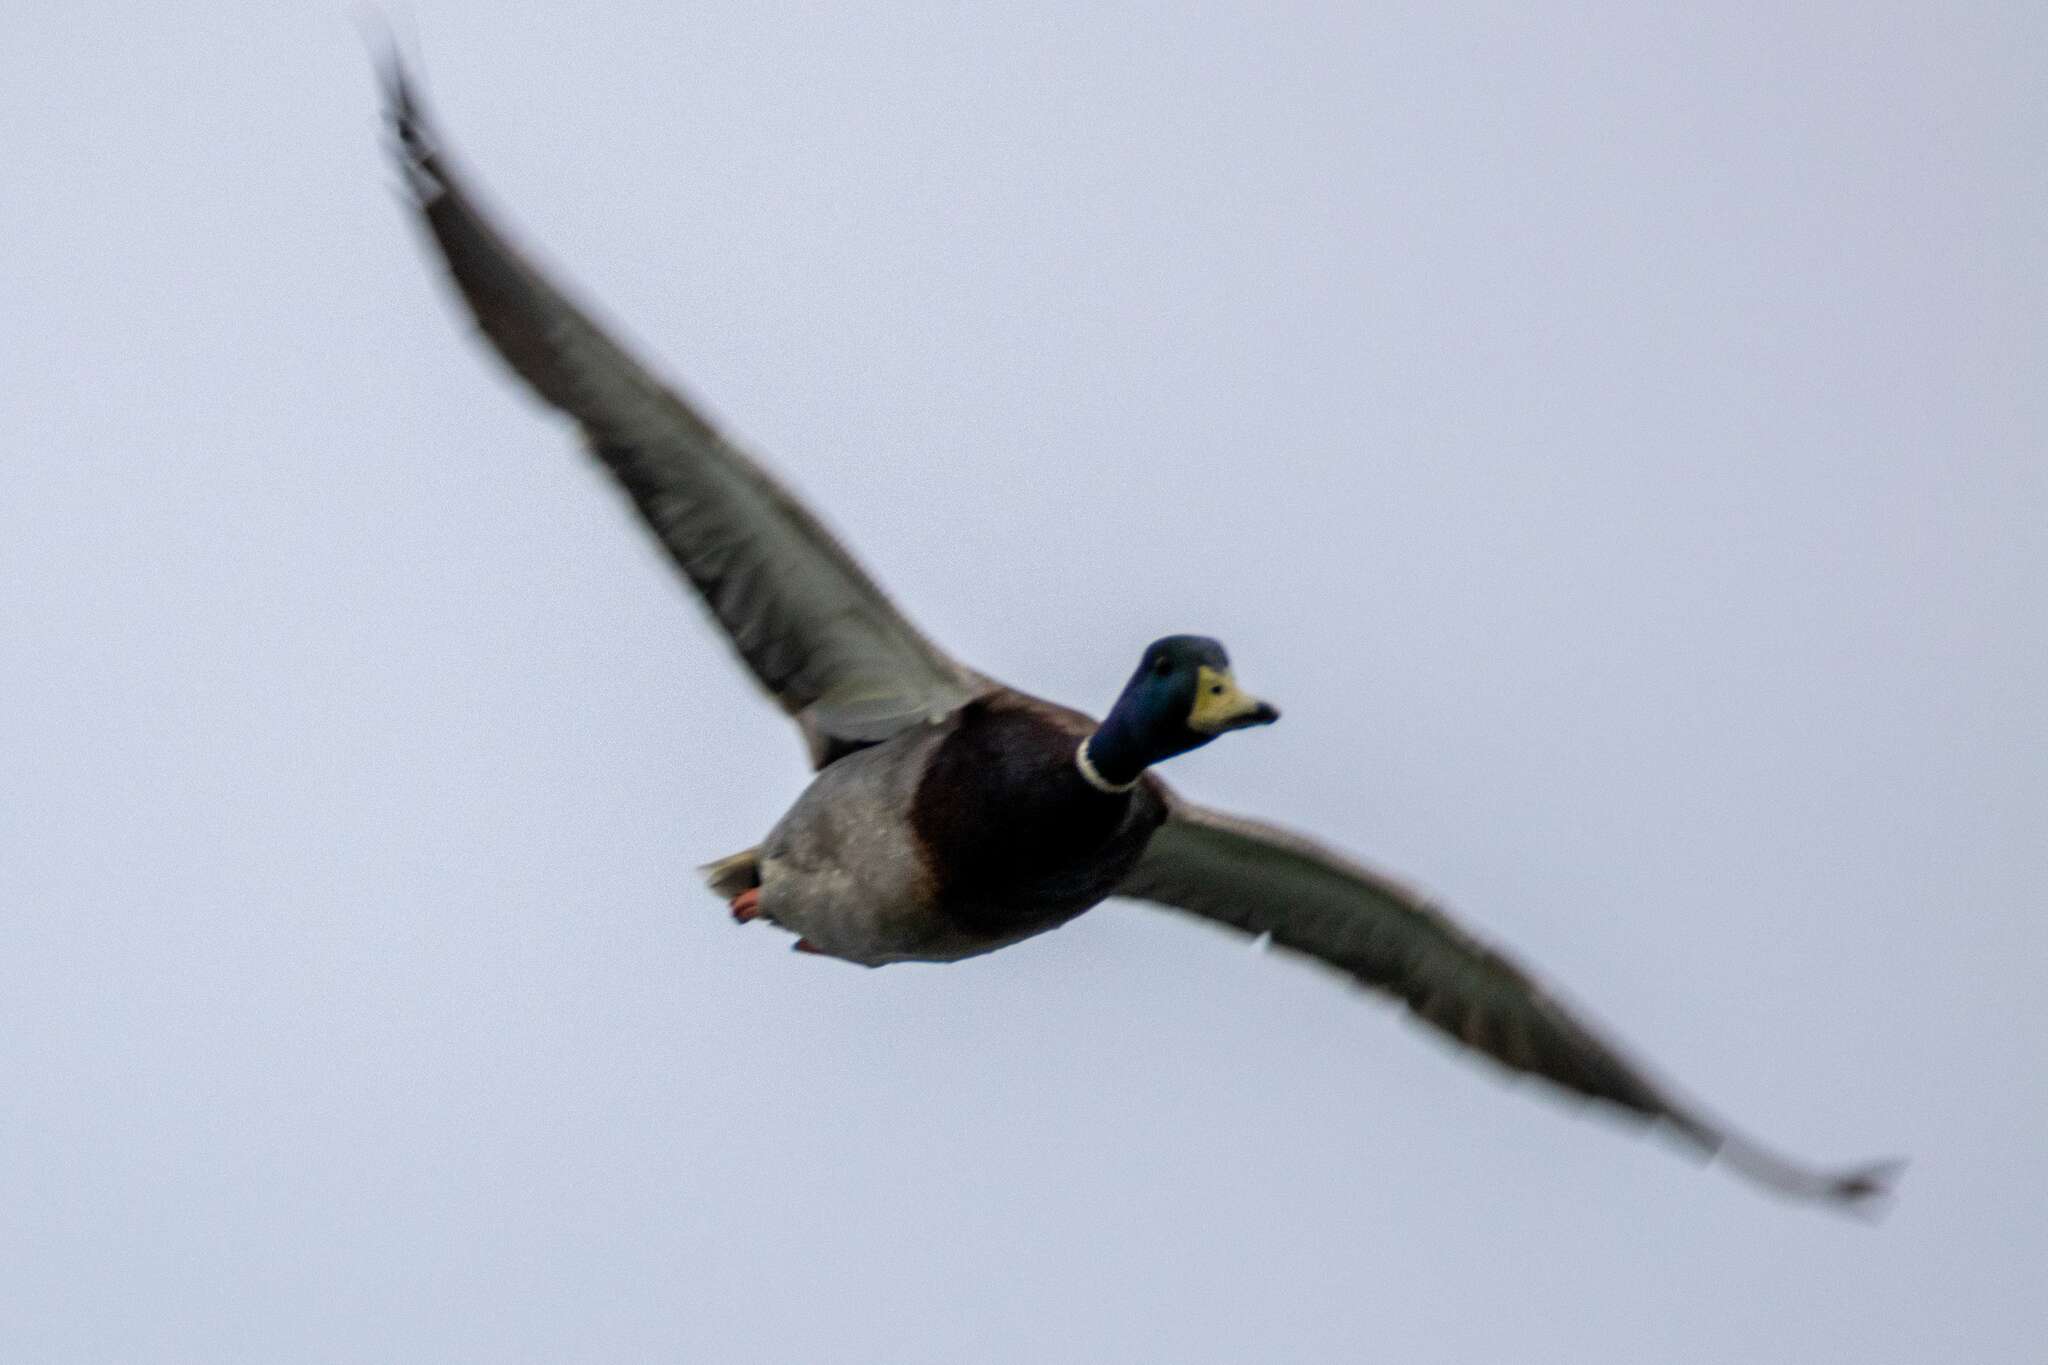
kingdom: Animalia
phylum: Chordata
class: Aves
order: Anseriformes
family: Anatidae
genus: Anas
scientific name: Anas platyrhynchos
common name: Mallard
